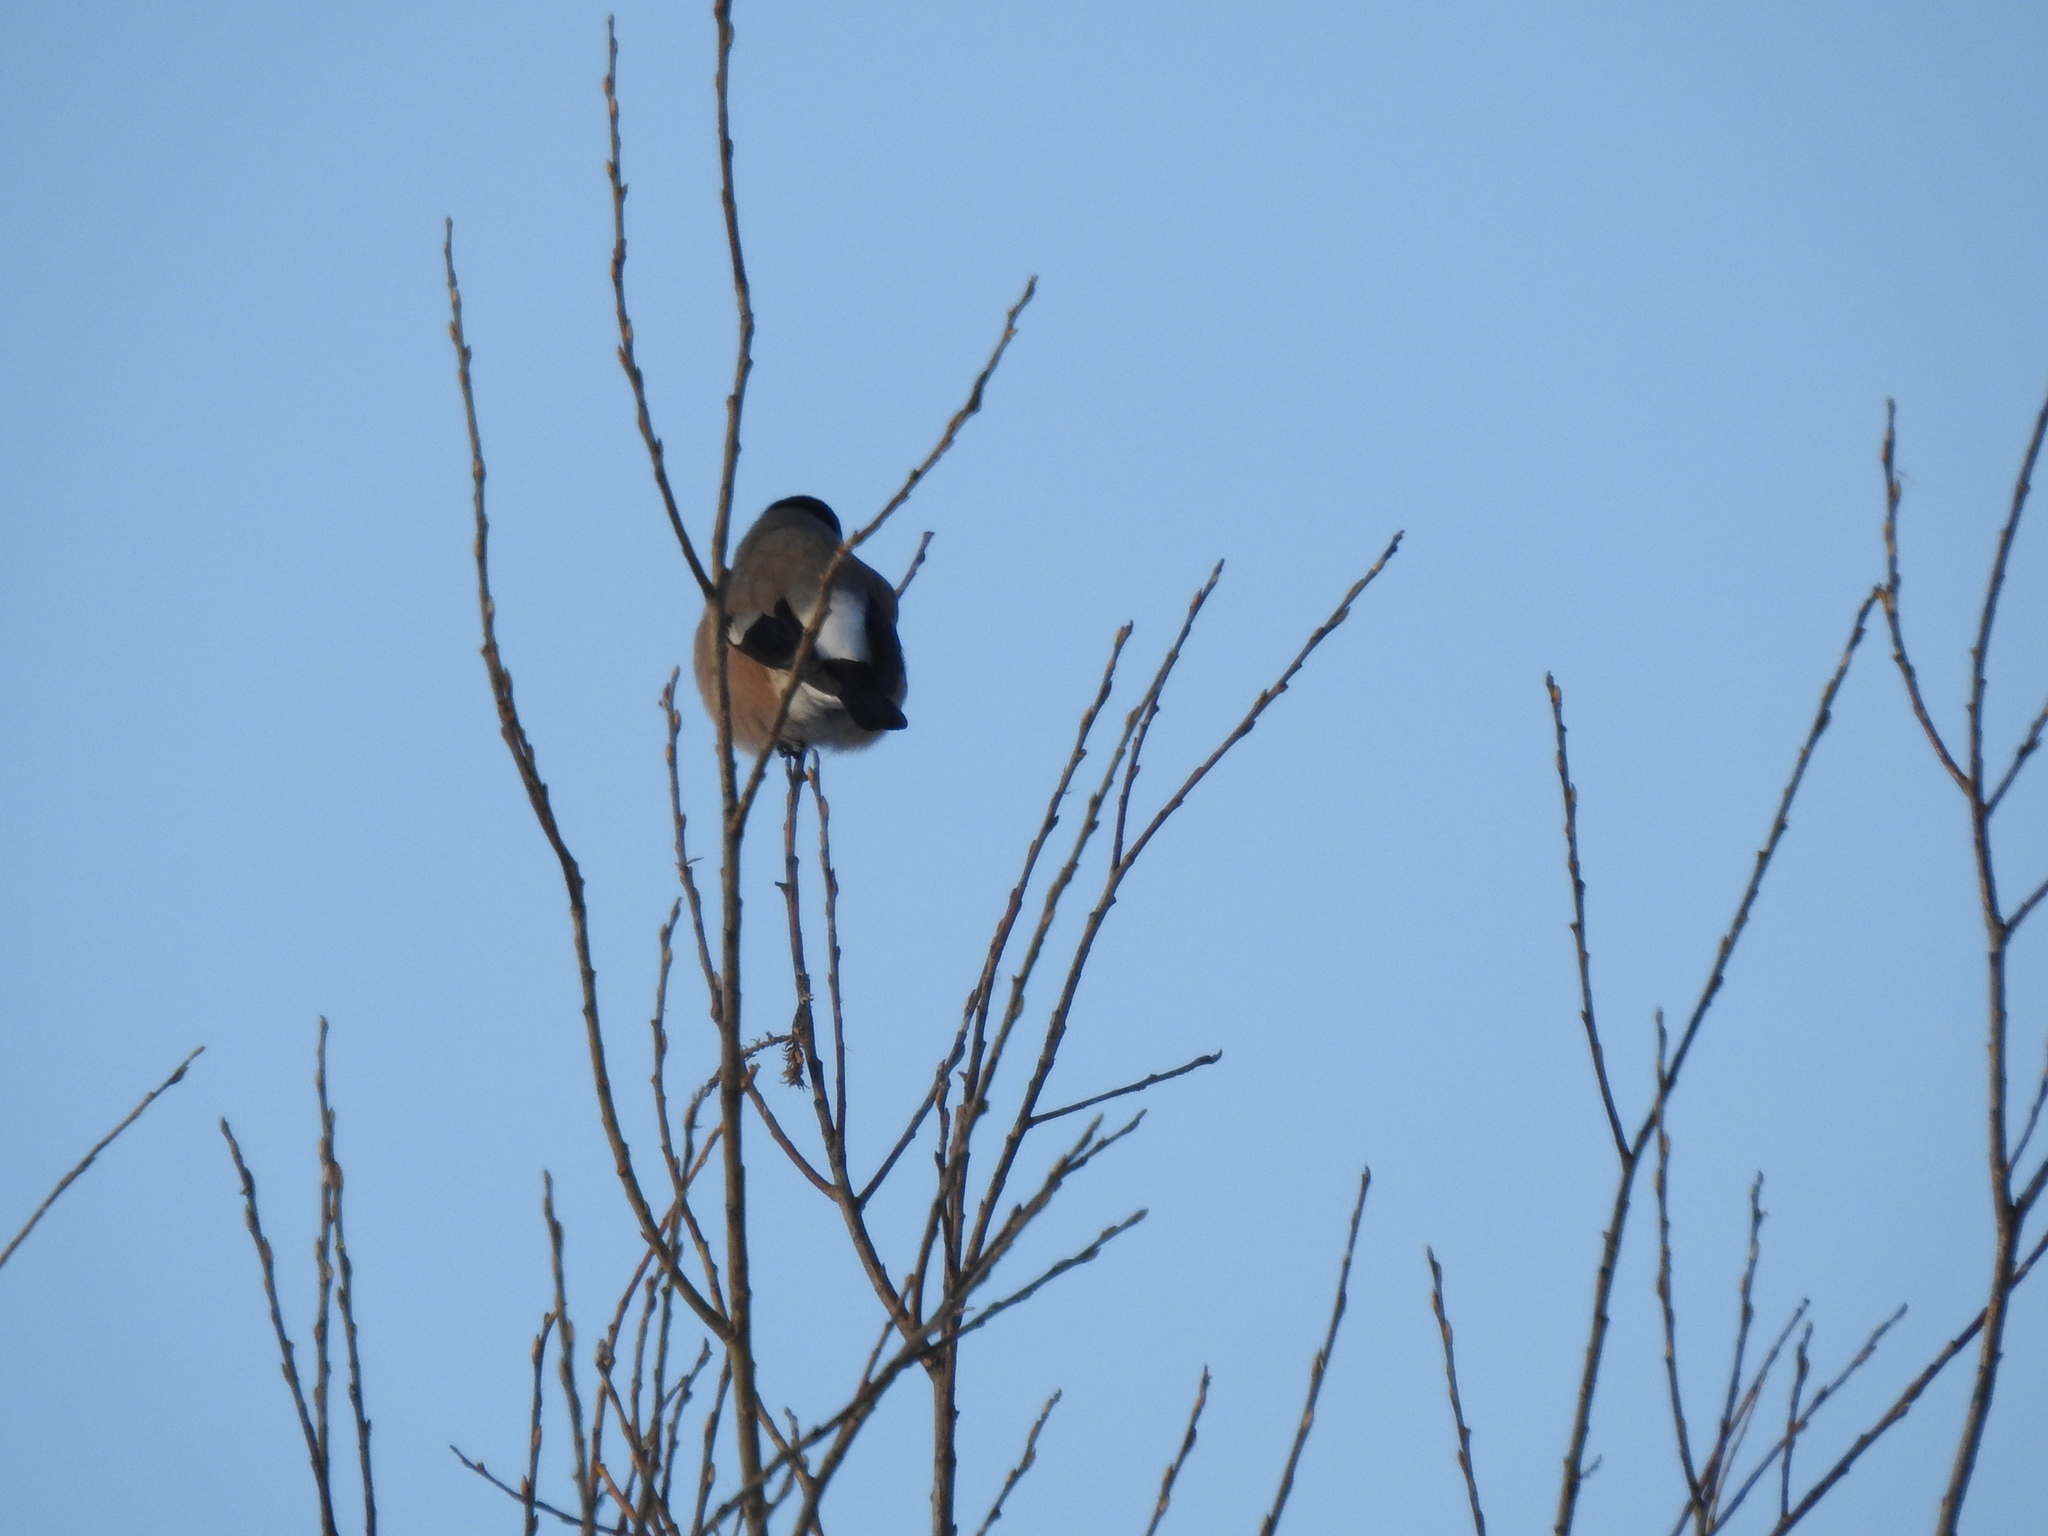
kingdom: Animalia
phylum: Chordata
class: Aves
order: Passeriformes
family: Fringillidae
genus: Pyrrhula
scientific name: Pyrrhula pyrrhula
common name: Eurasian bullfinch
